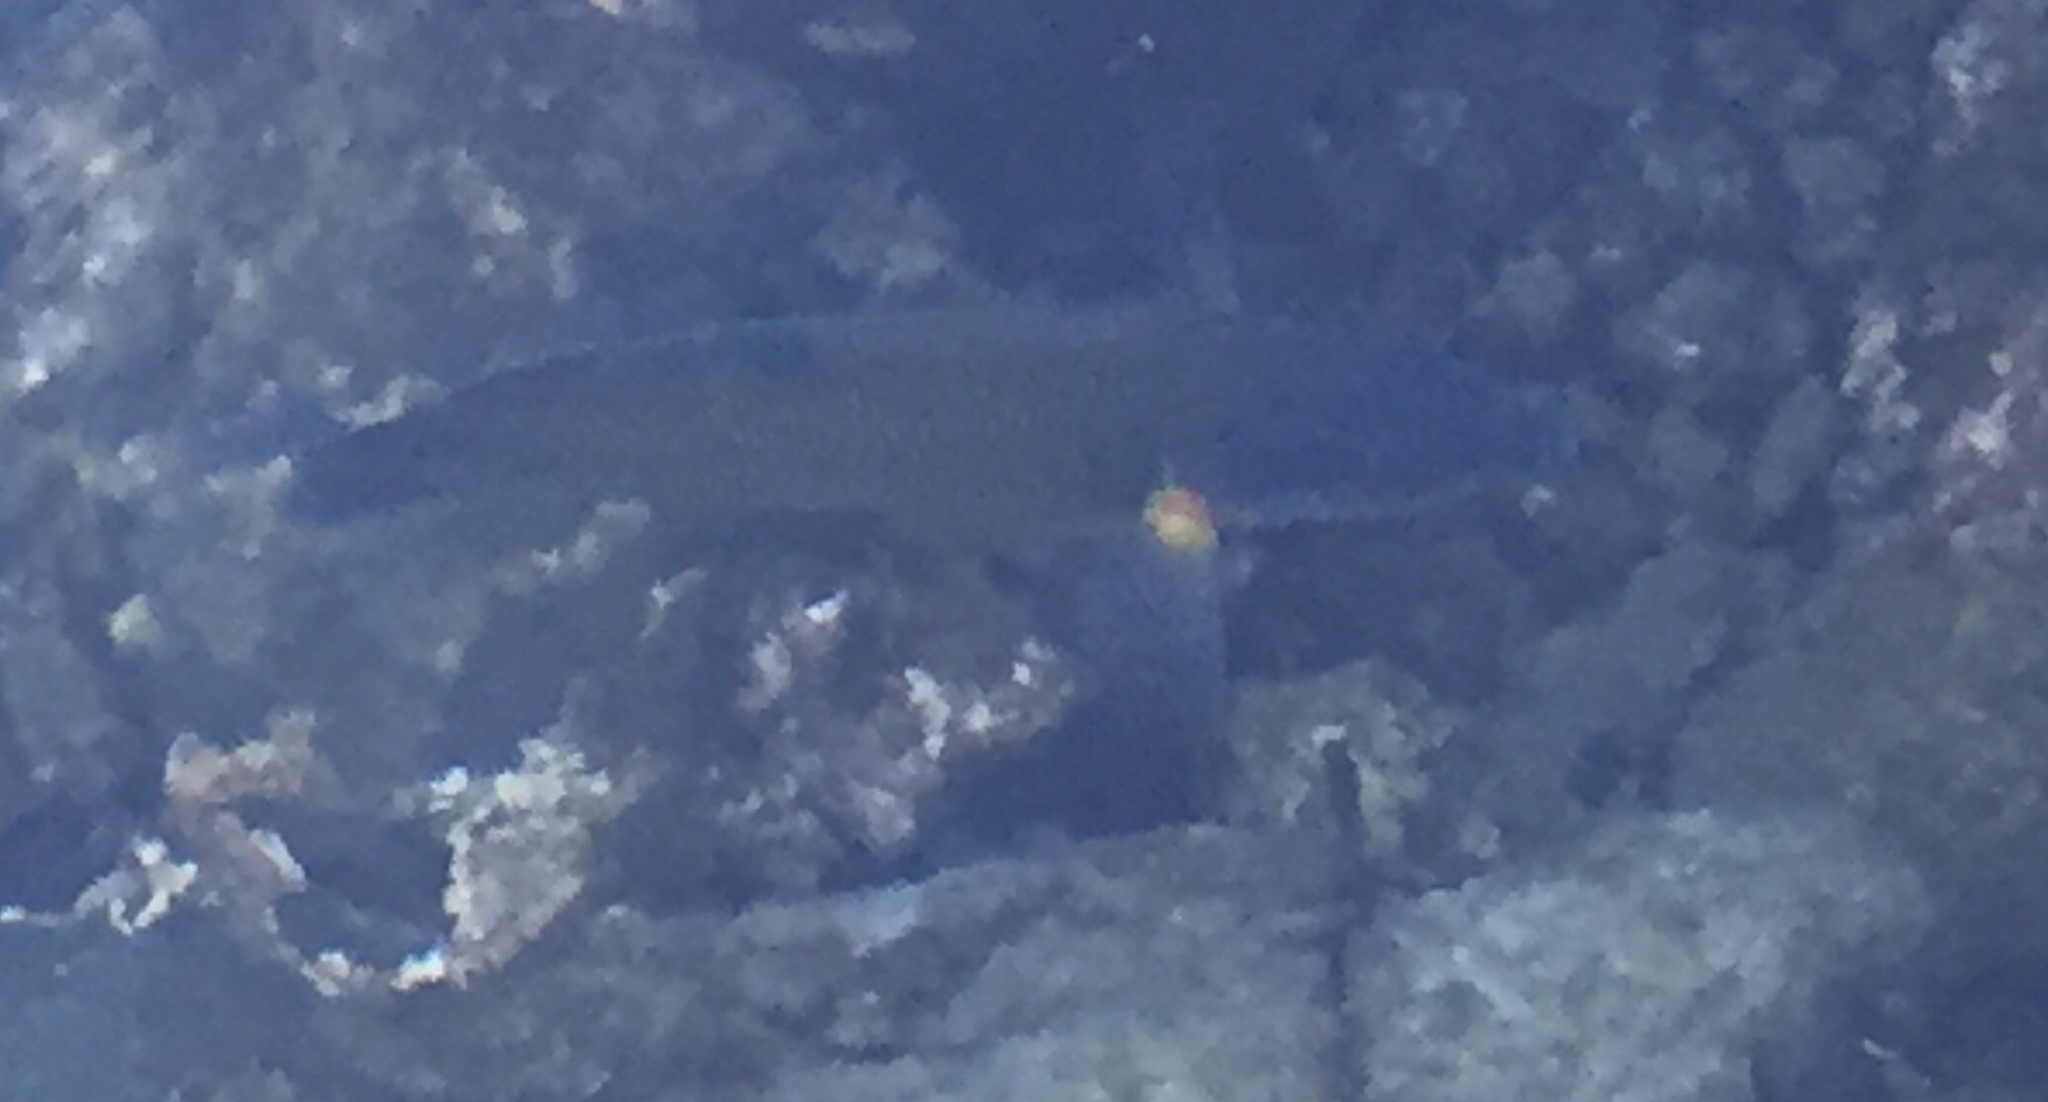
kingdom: Animalia
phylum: Chordata
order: Perciformes
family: Labridae
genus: Thalassoma
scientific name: Thalassoma pavo
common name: Ornate wrasse
